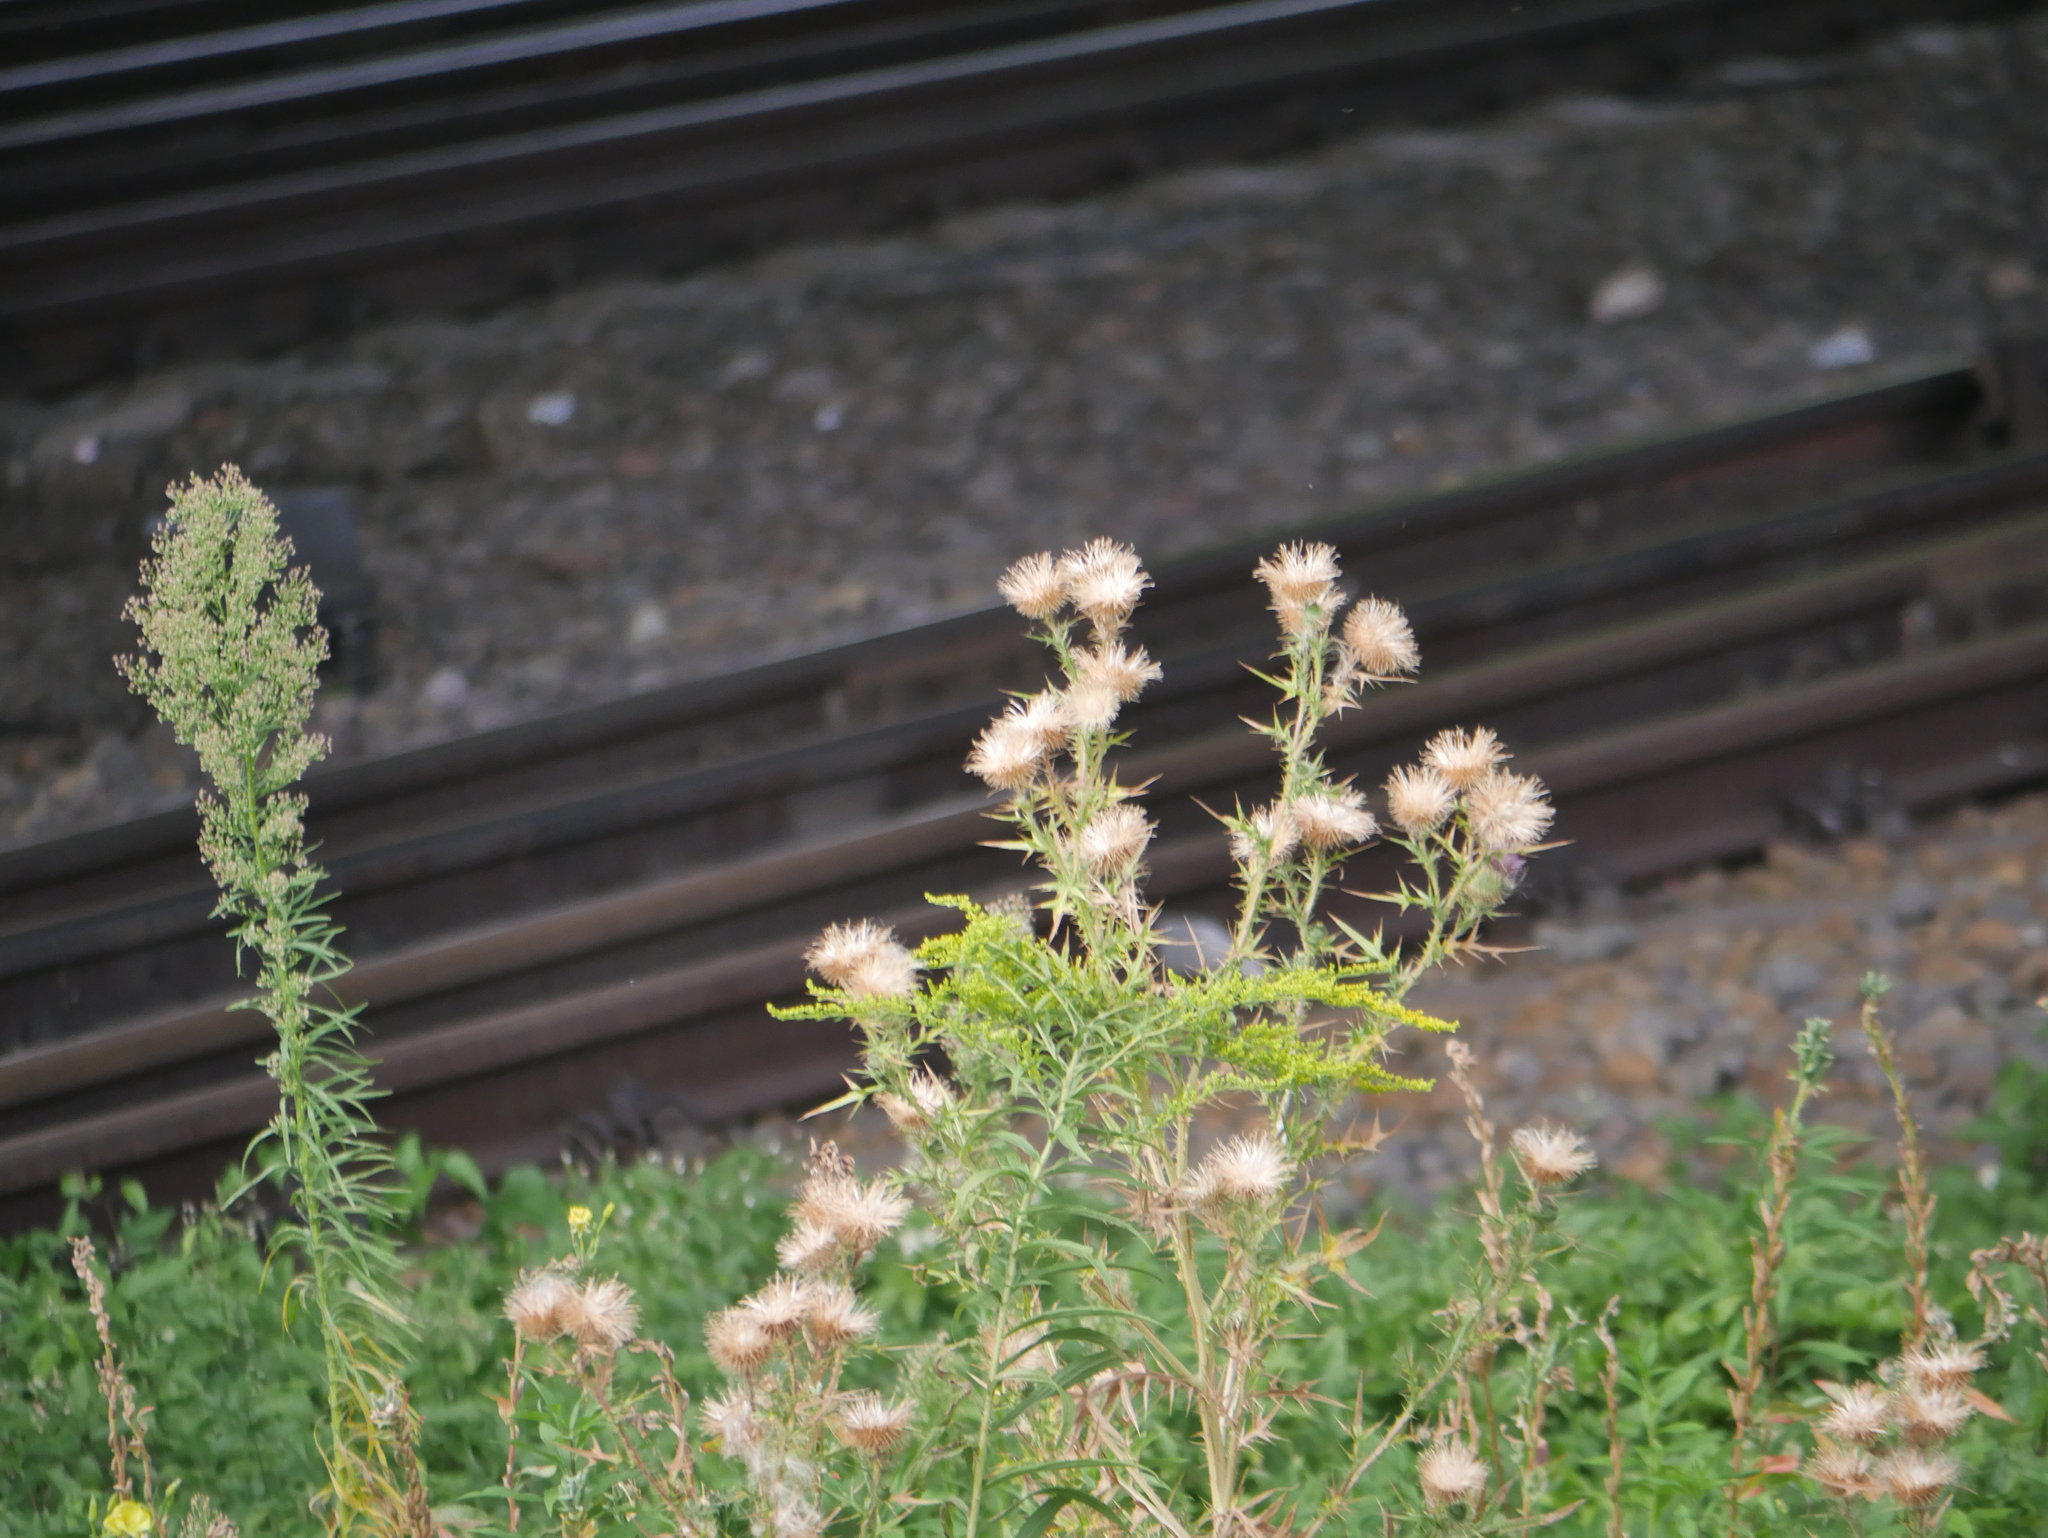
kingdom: Plantae
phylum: Tracheophyta
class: Magnoliopsida
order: Asterales
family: Asteraceae
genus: Cirsium
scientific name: Cirsium vulgare
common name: Bull thistle
